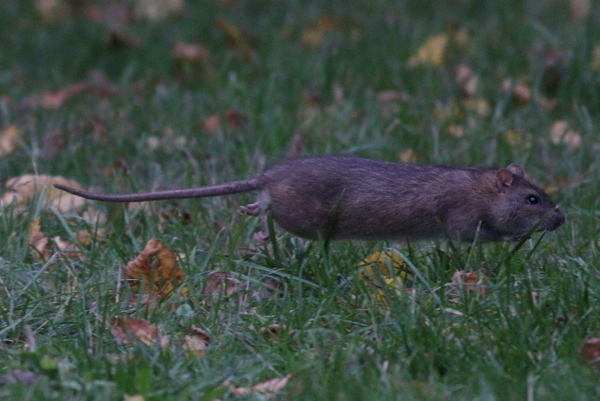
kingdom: Animalia
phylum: Chordata
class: Mammalia
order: Rodentia
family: Muridae
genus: Rattus
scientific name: Rattus norvegicus
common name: Brown rat
